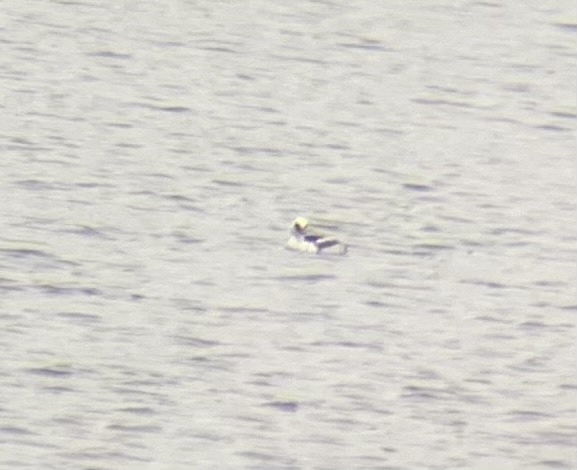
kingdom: Animalia
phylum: Chordata
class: Aves
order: Anseriformes
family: Anatidae
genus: Mergellus
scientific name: Mergellus albellus
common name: Smew
